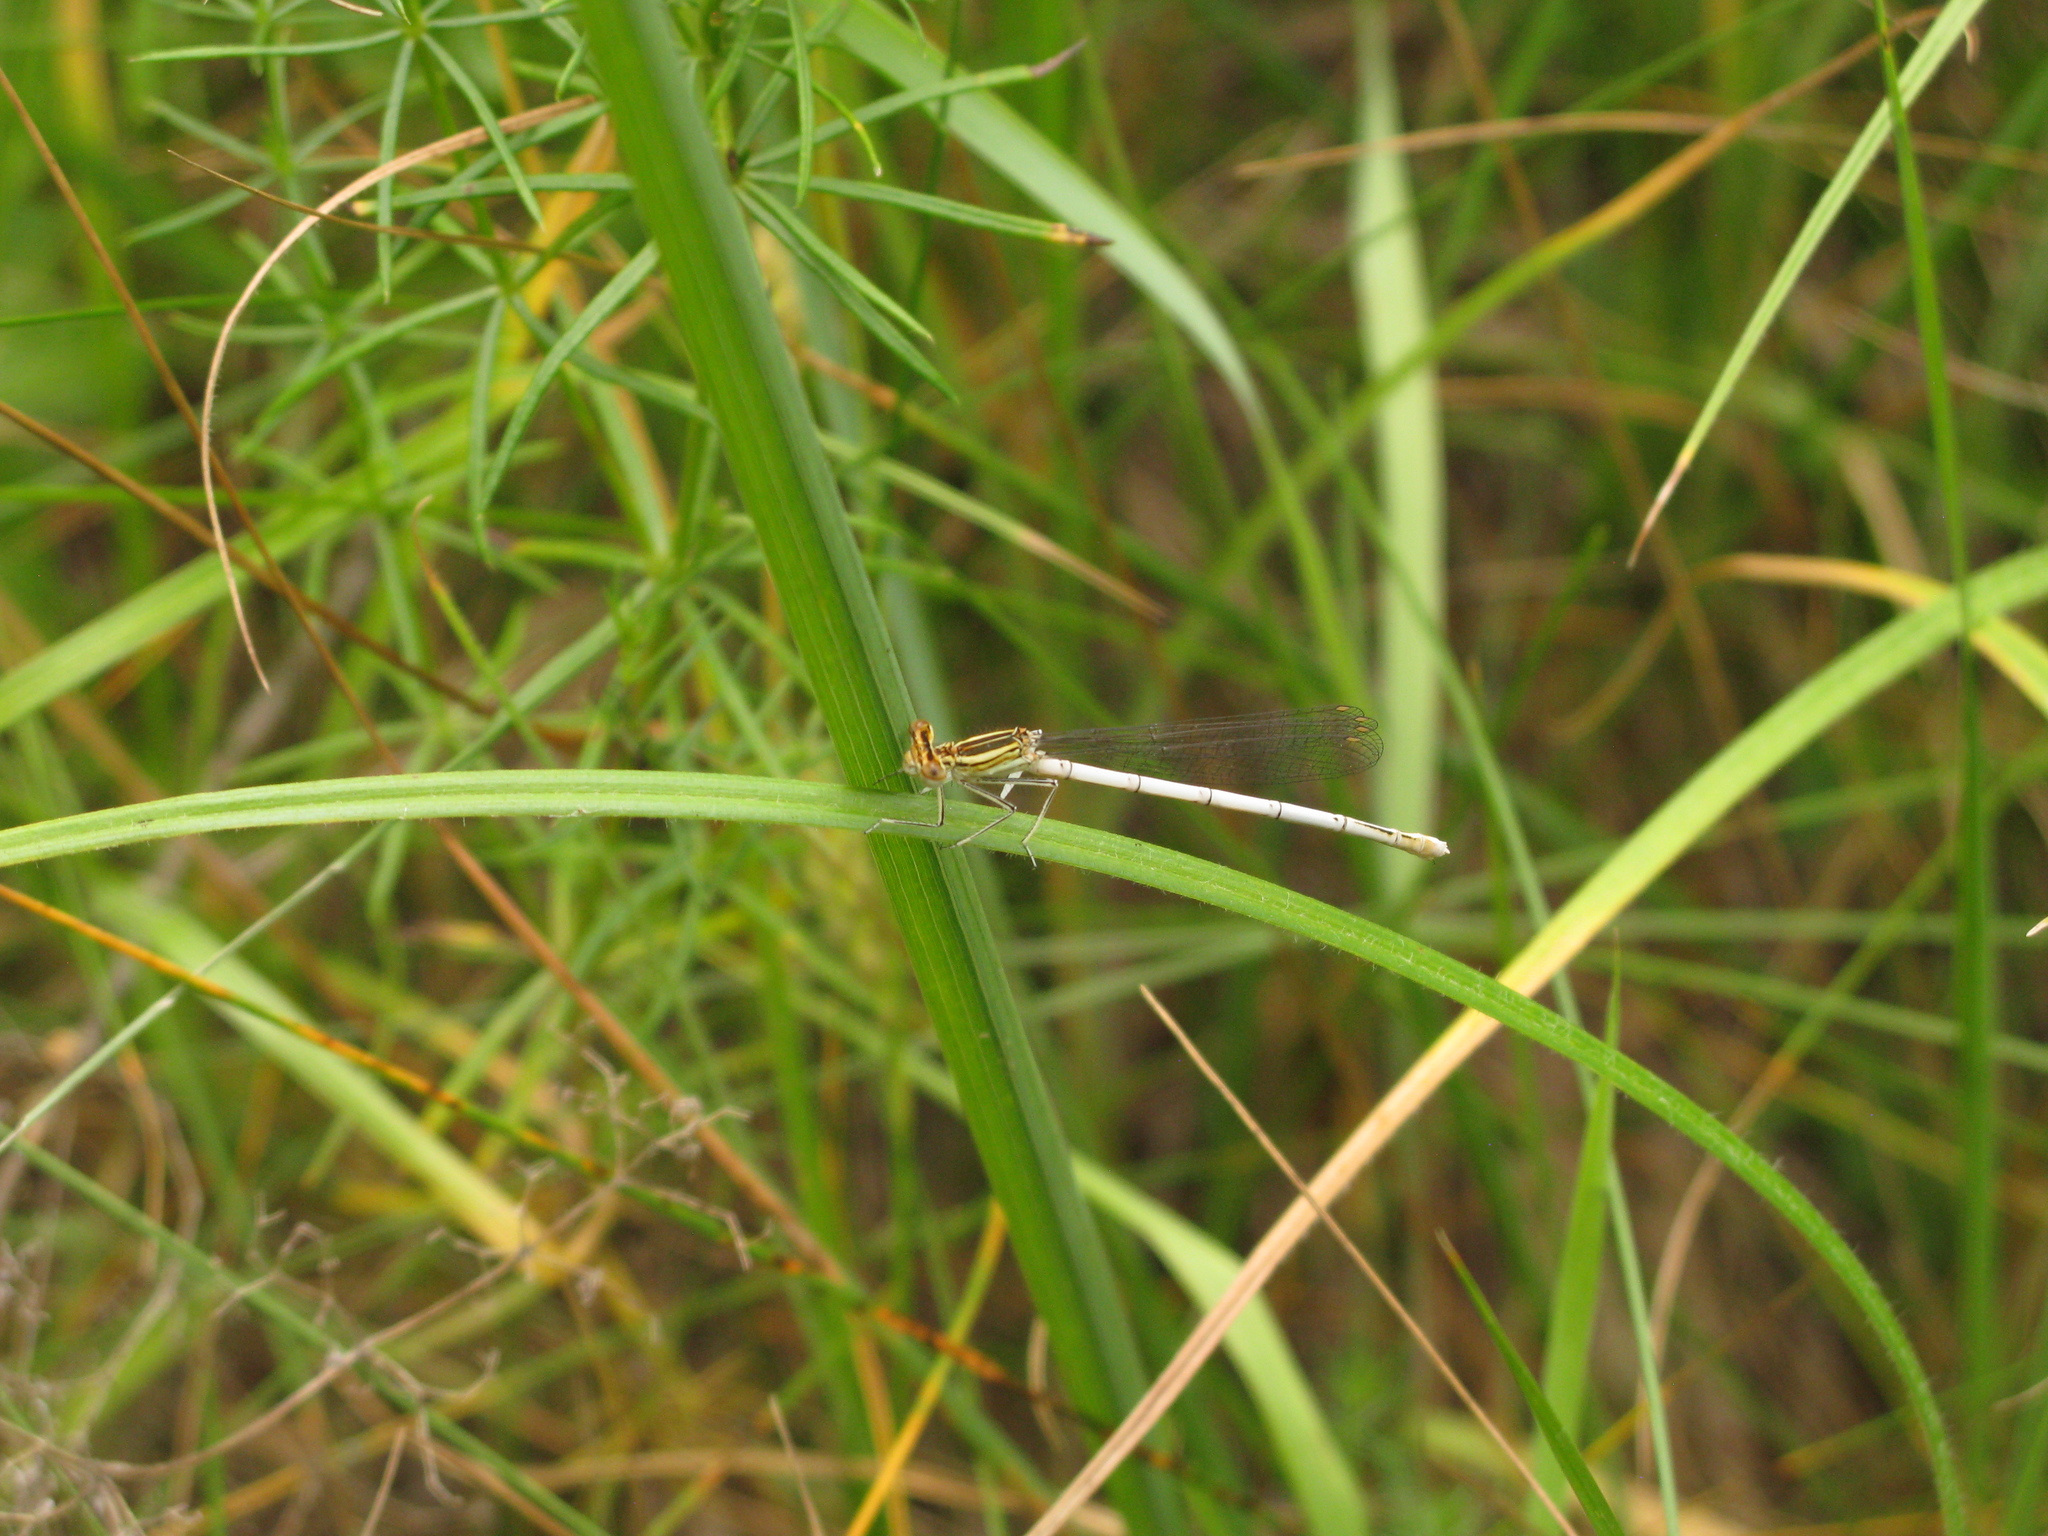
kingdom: Animalia
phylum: Arthropoda
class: Insecta
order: Odonata
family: Platycnemididae
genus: Platycnemis
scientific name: Platycnemis pennipes
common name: White-legged damselfly
